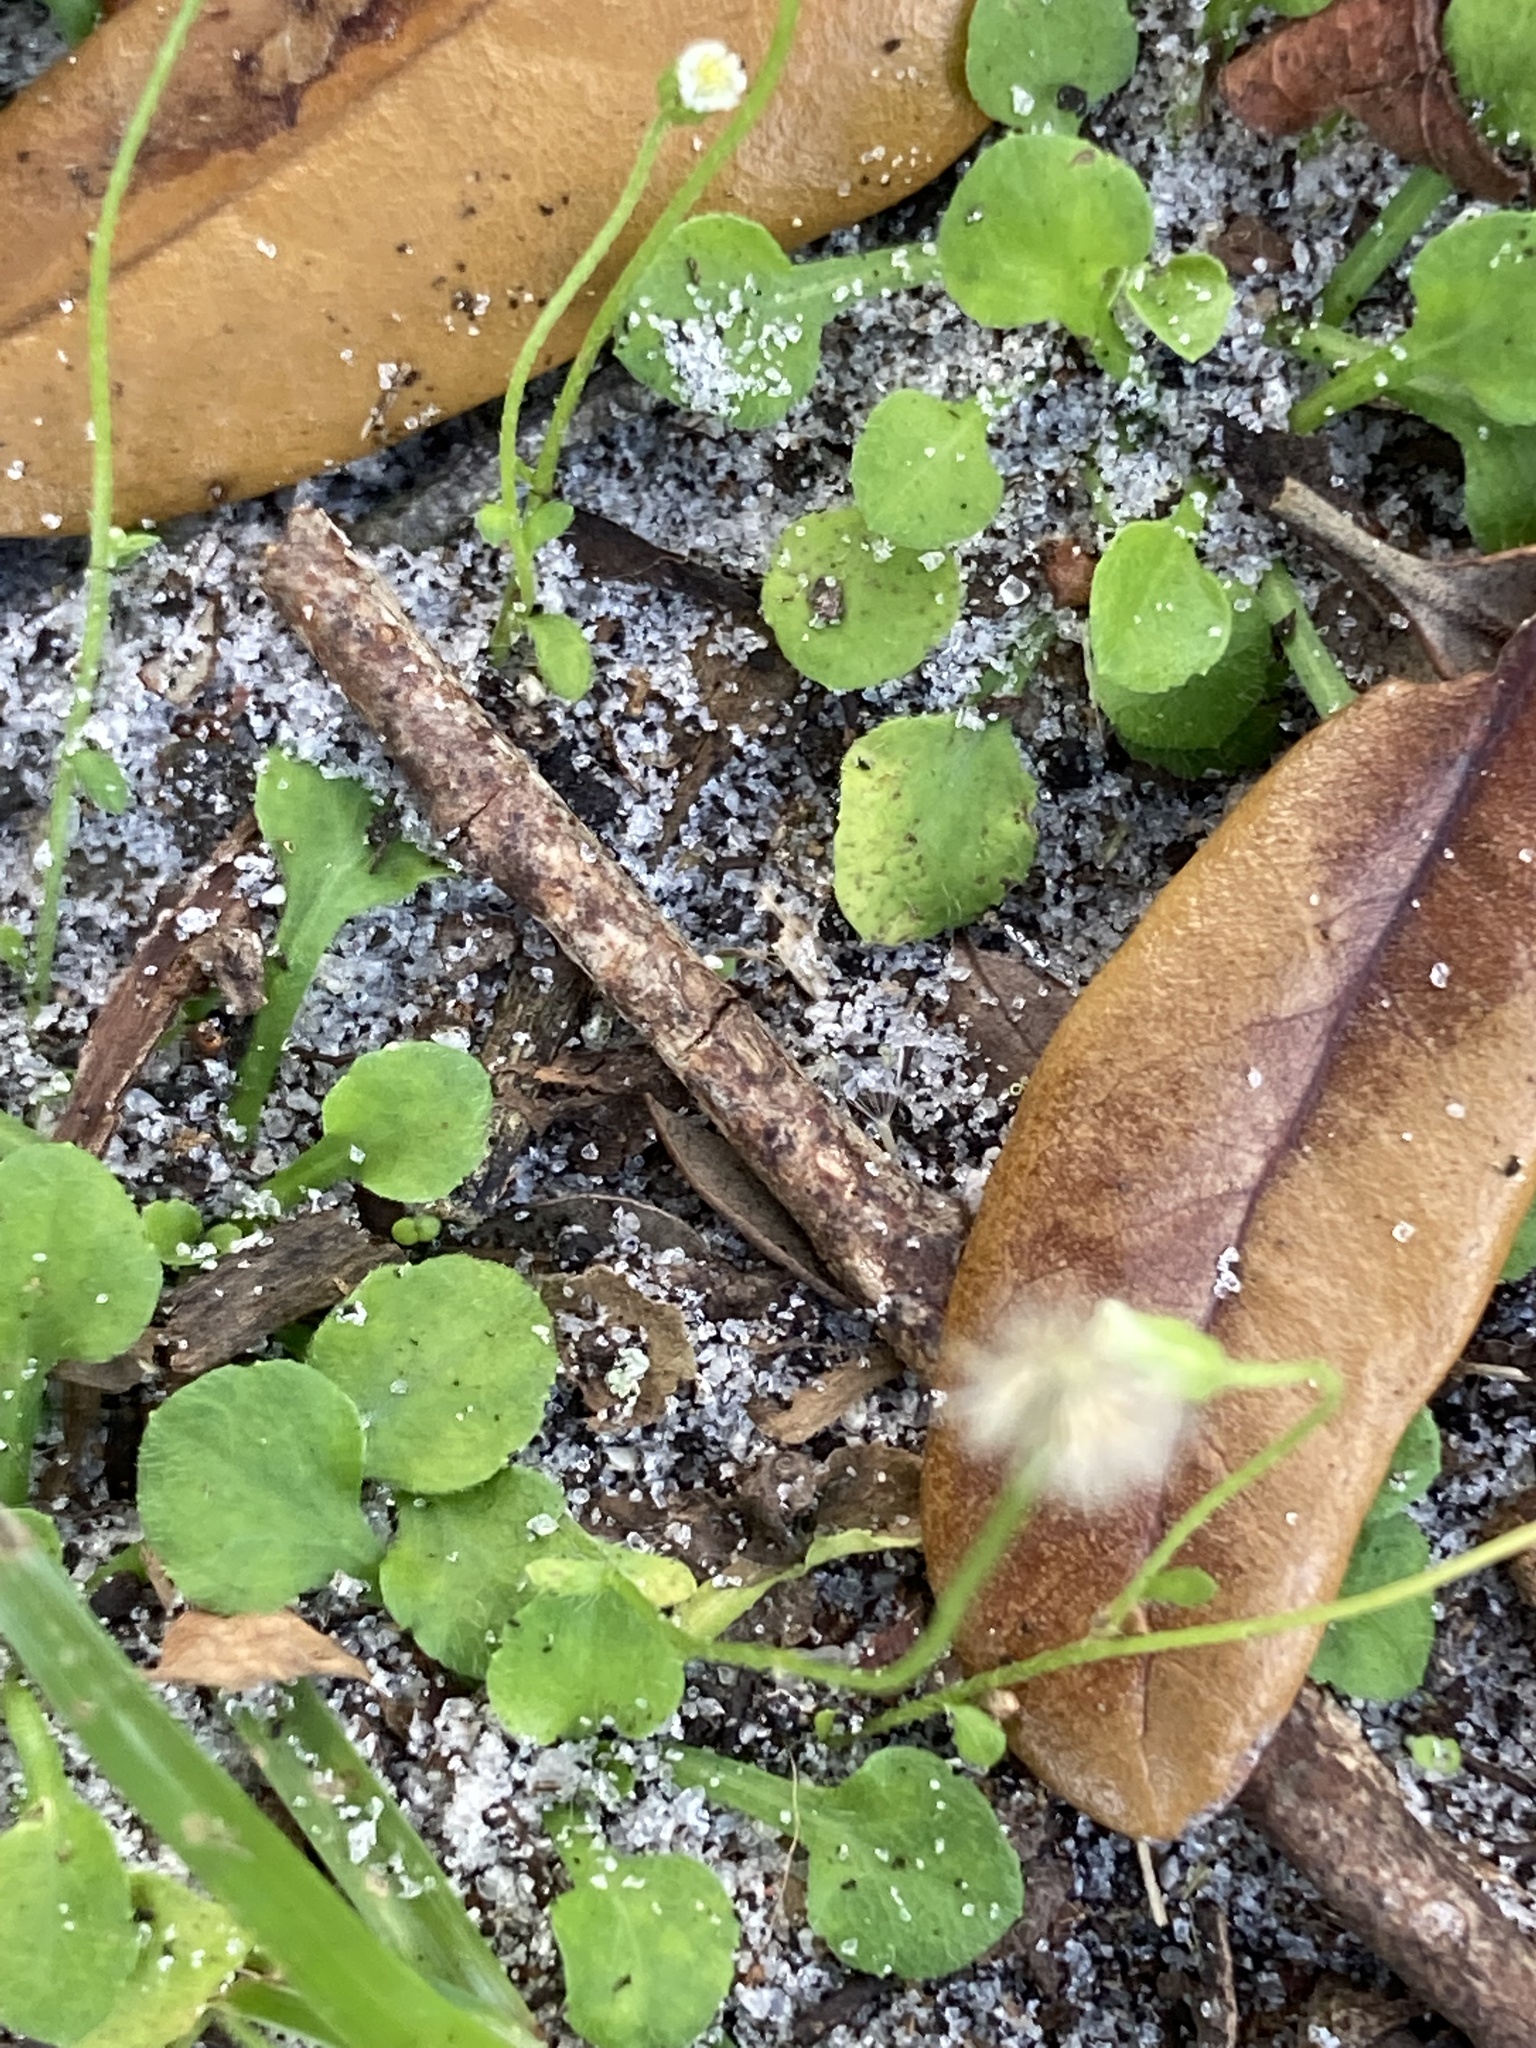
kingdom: Plantae
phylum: Tracheophyta
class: Magnoliopsida
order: Asterales
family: Asteraceae
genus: Erigeron
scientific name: Erigeron bellioides
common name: Bellorita
